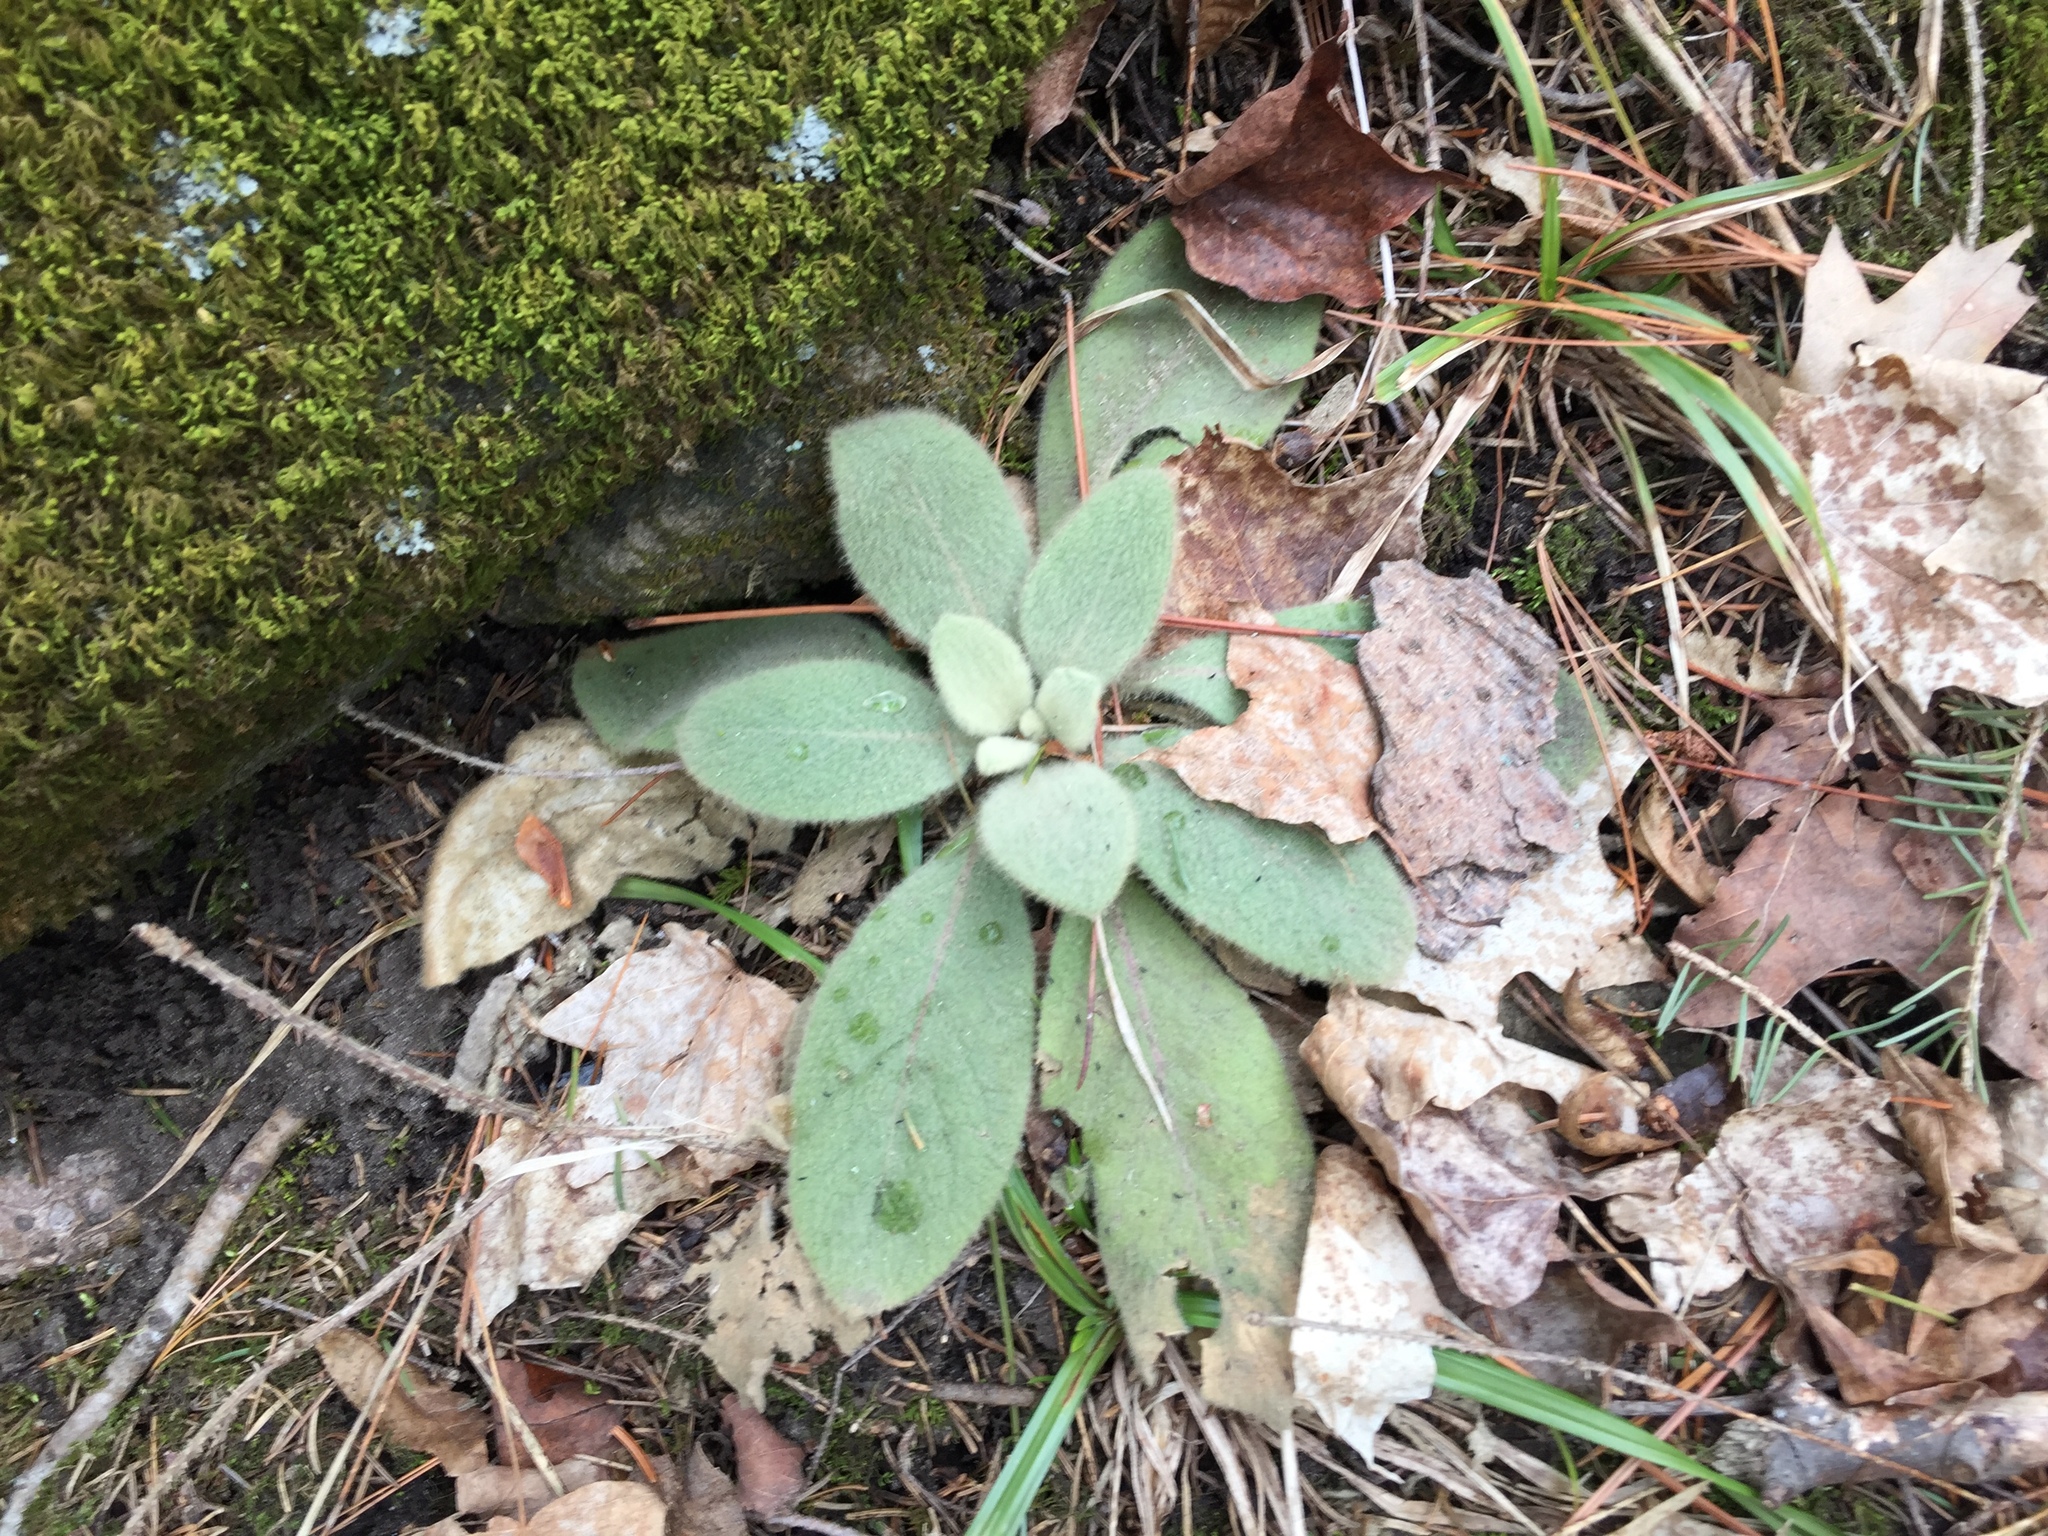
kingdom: Plantae
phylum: Tracheophyta
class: Magnoliopsida
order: Lamiales
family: Scrophulariaceae
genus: Verbascum
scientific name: Verbascum thapsus
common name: Common mullein
